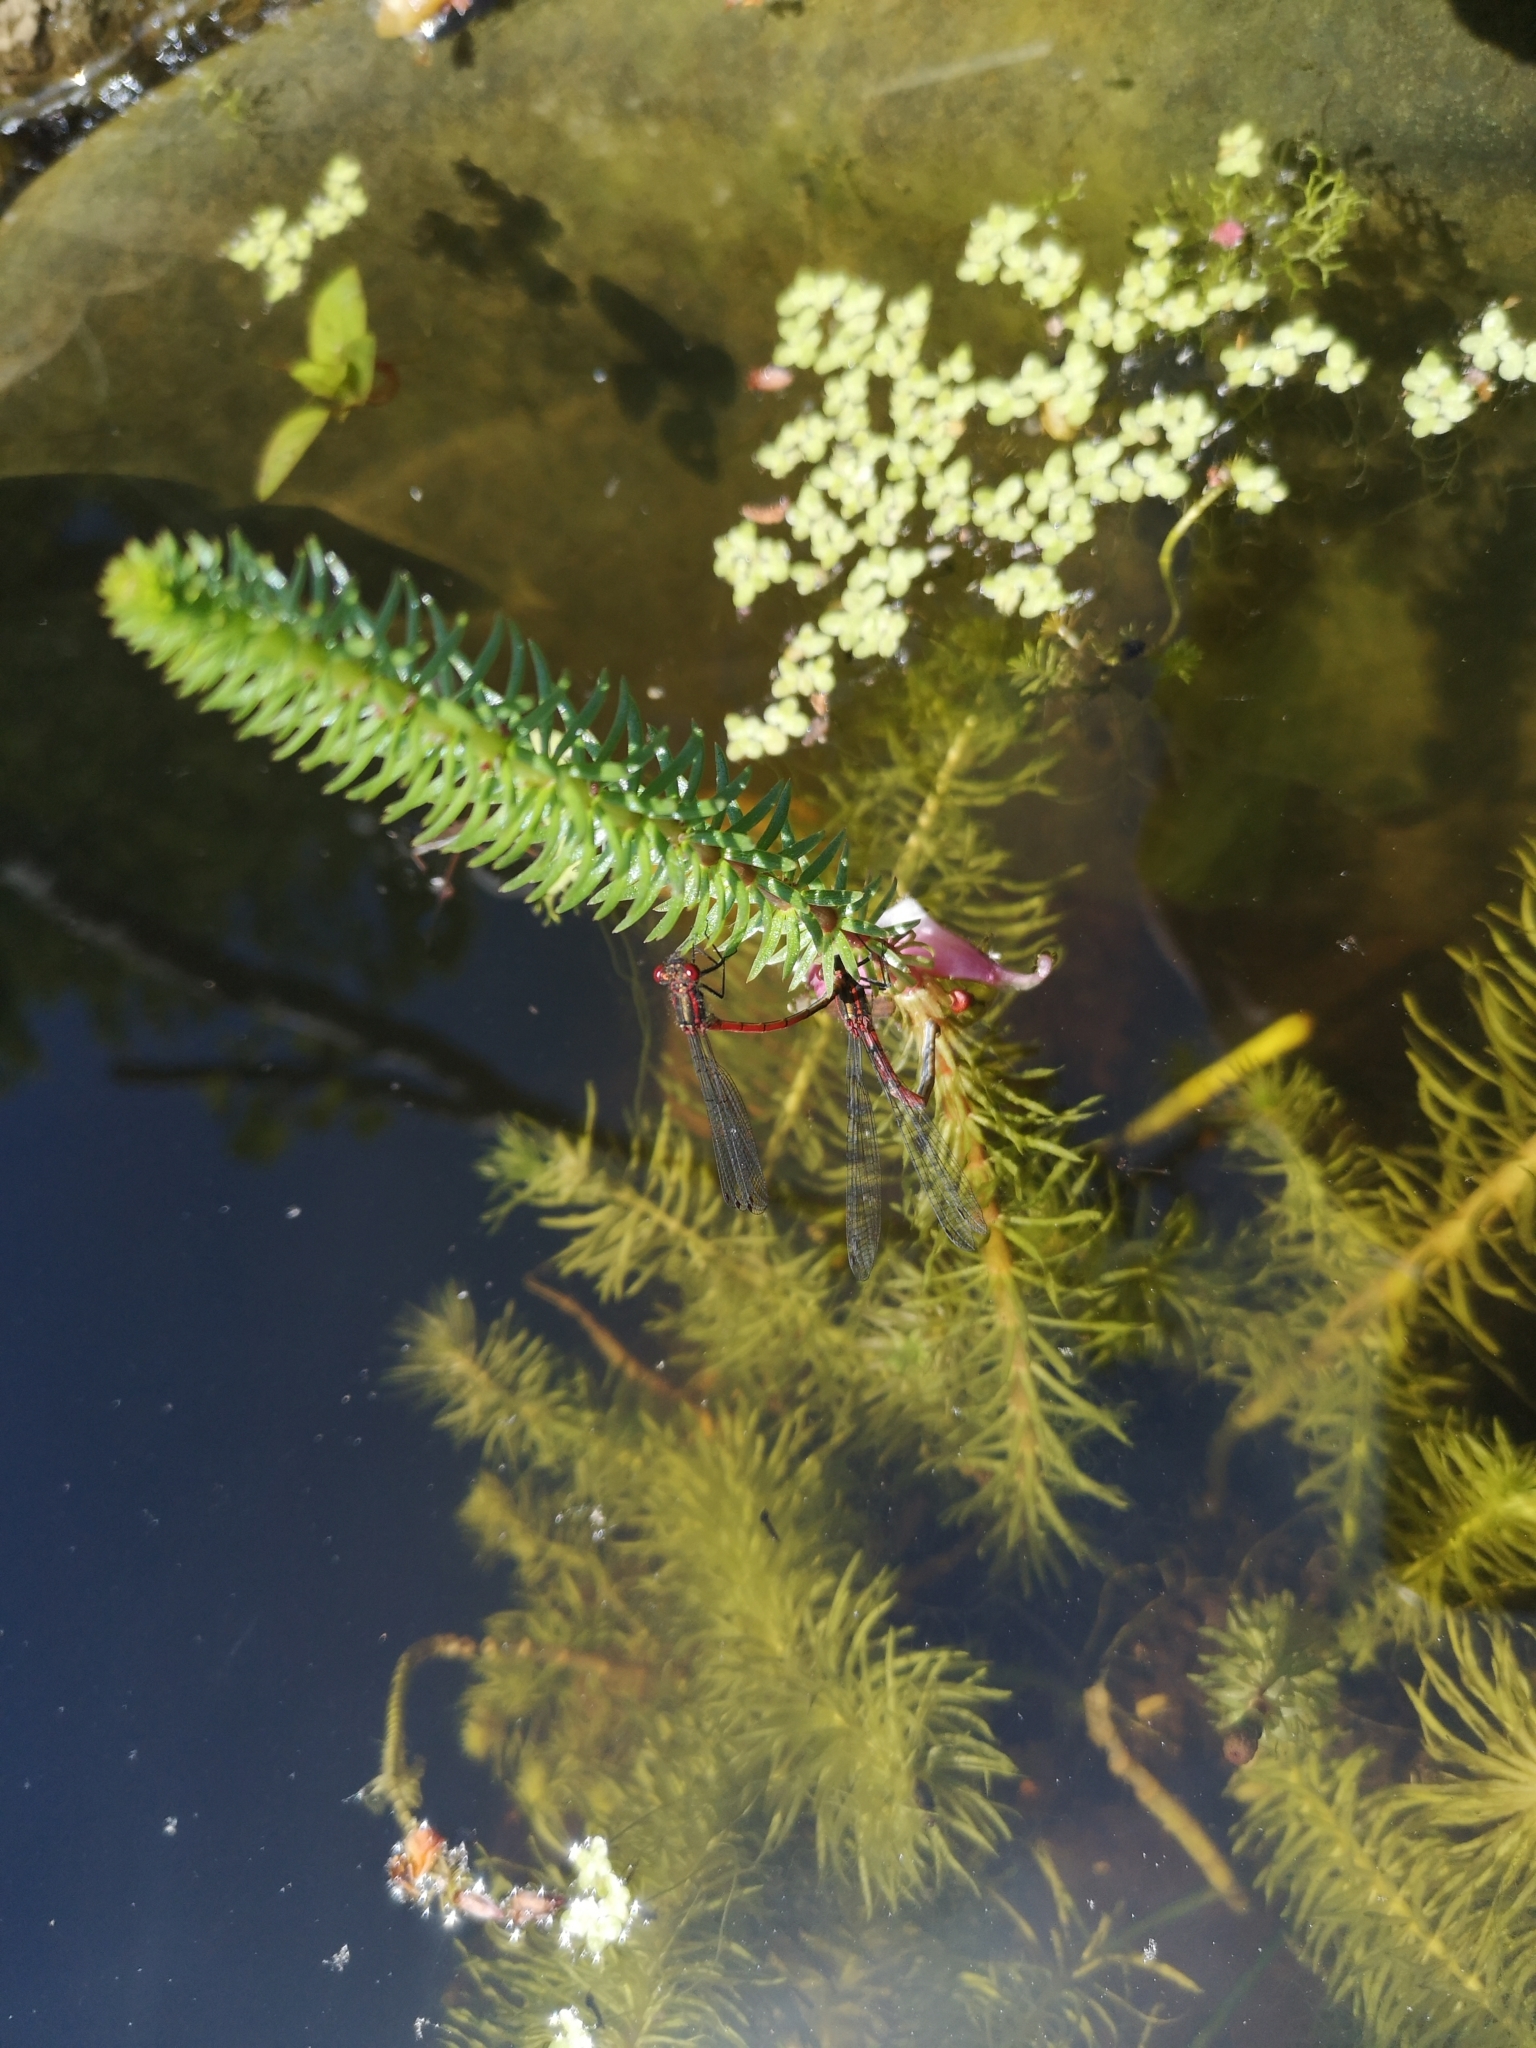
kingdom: Animalia
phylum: Arthropoda
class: Insecta
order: Odonata
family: Coenagrionidae
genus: Pyrrhosoma
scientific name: Pyrrhosoma nymphula
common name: Large red damsel
